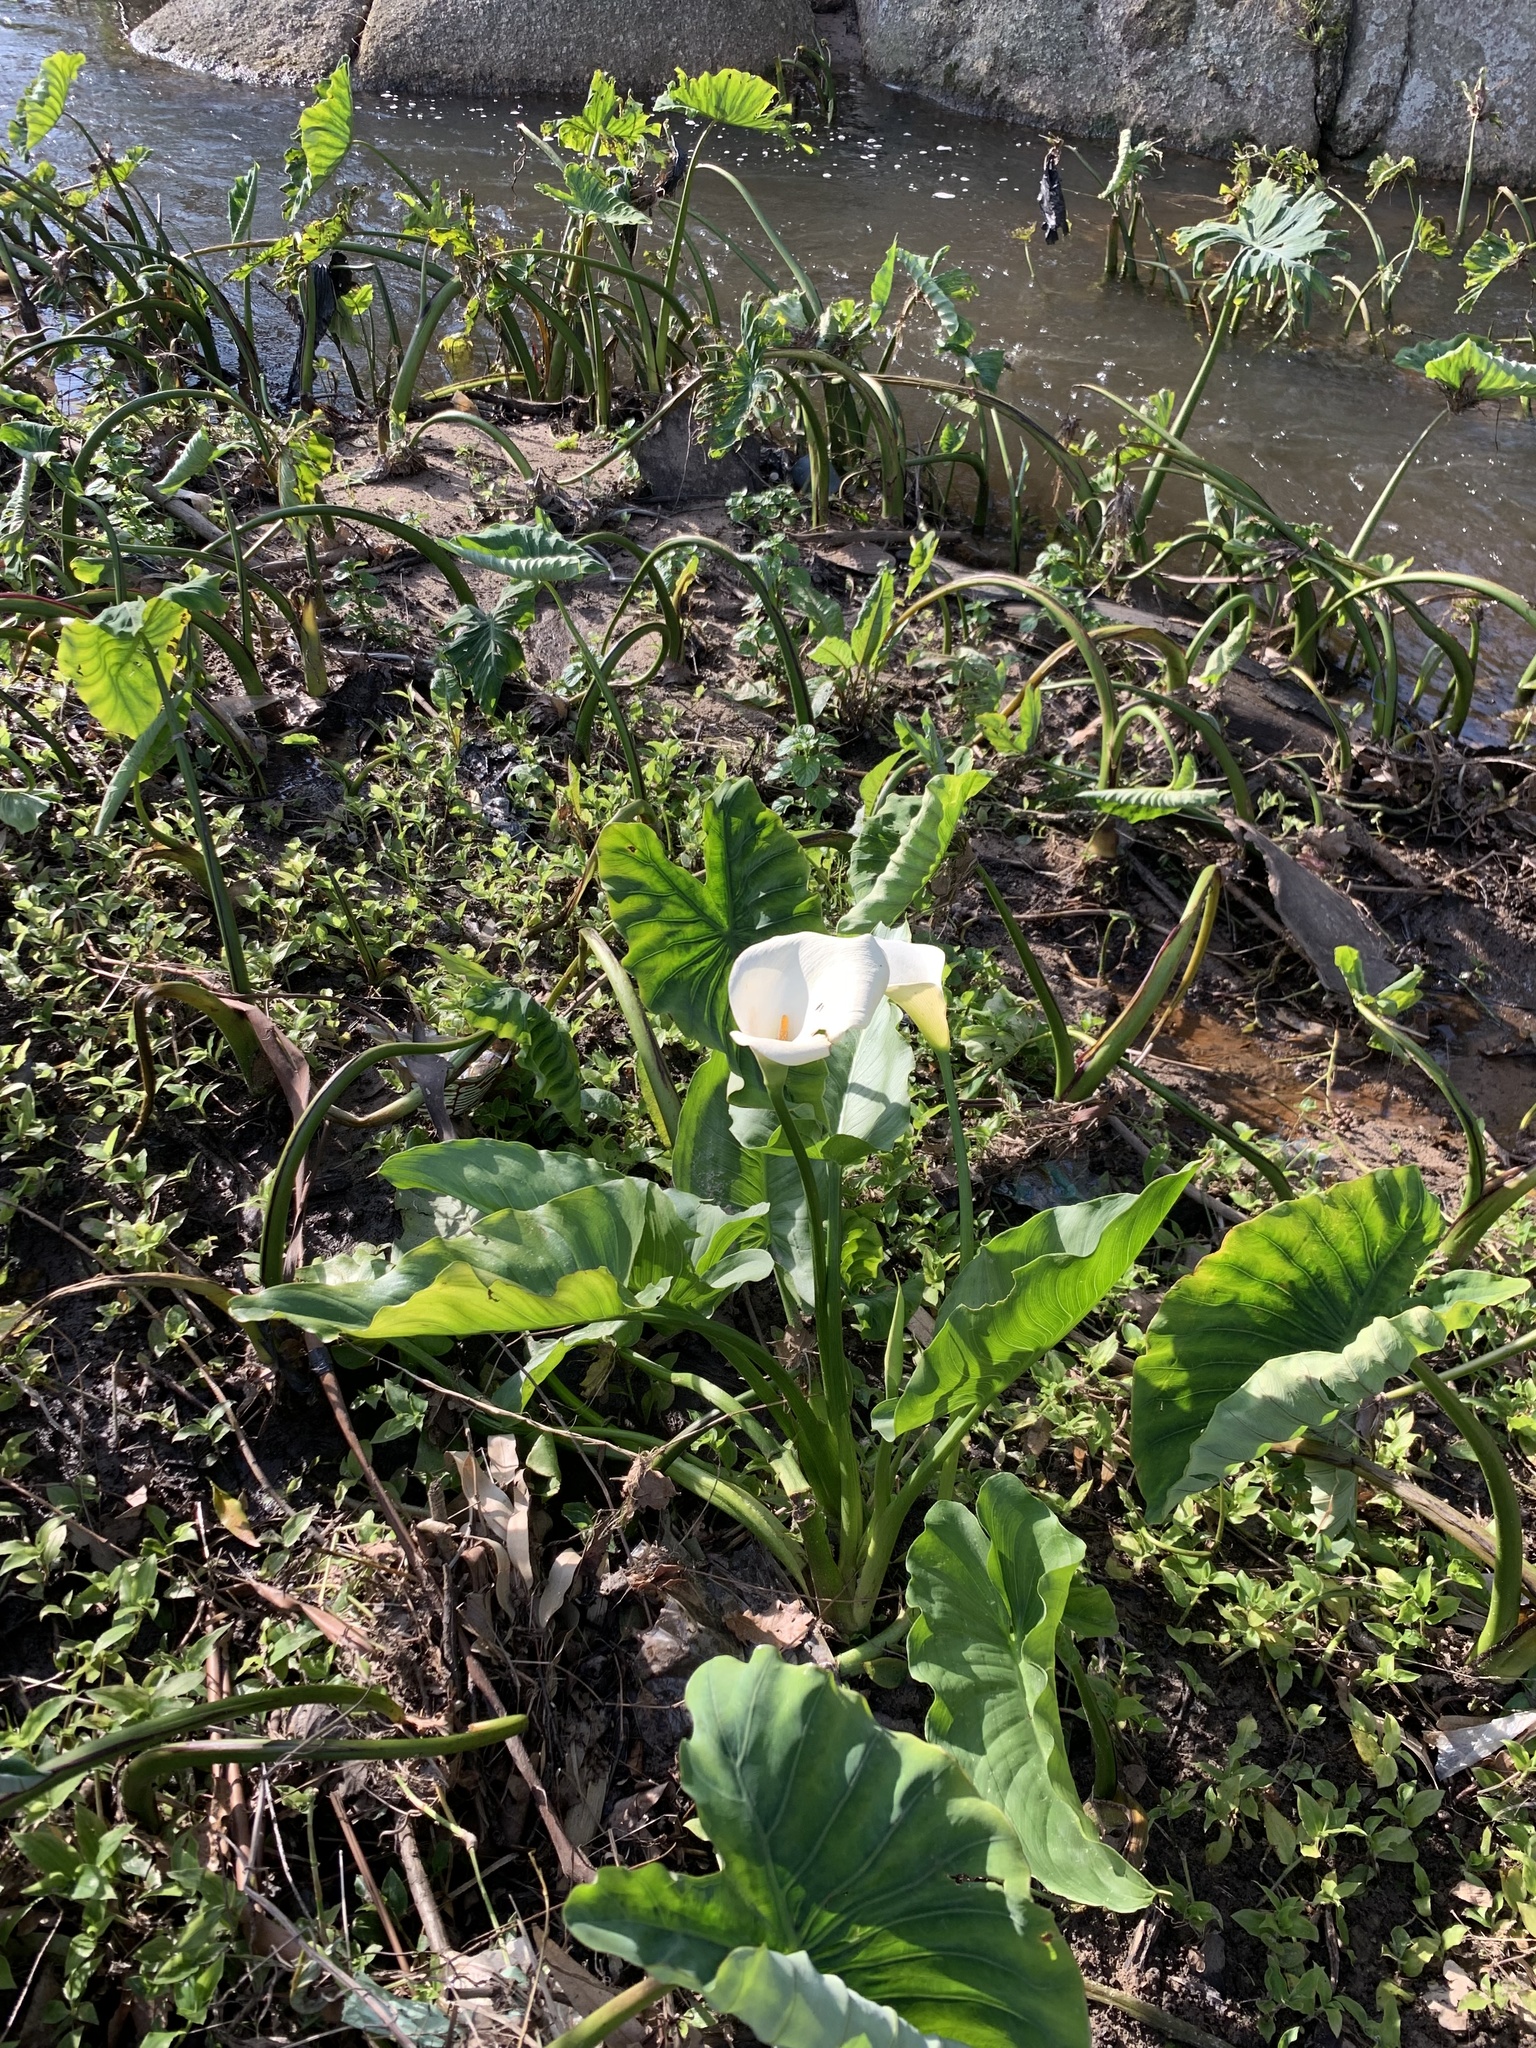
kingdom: Plantae
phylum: Tracheophyta
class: Liliopsida
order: Alismatales
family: Araceae
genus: Zantedeschia
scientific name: Zantedeschia aethiopica
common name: Altar-lily
